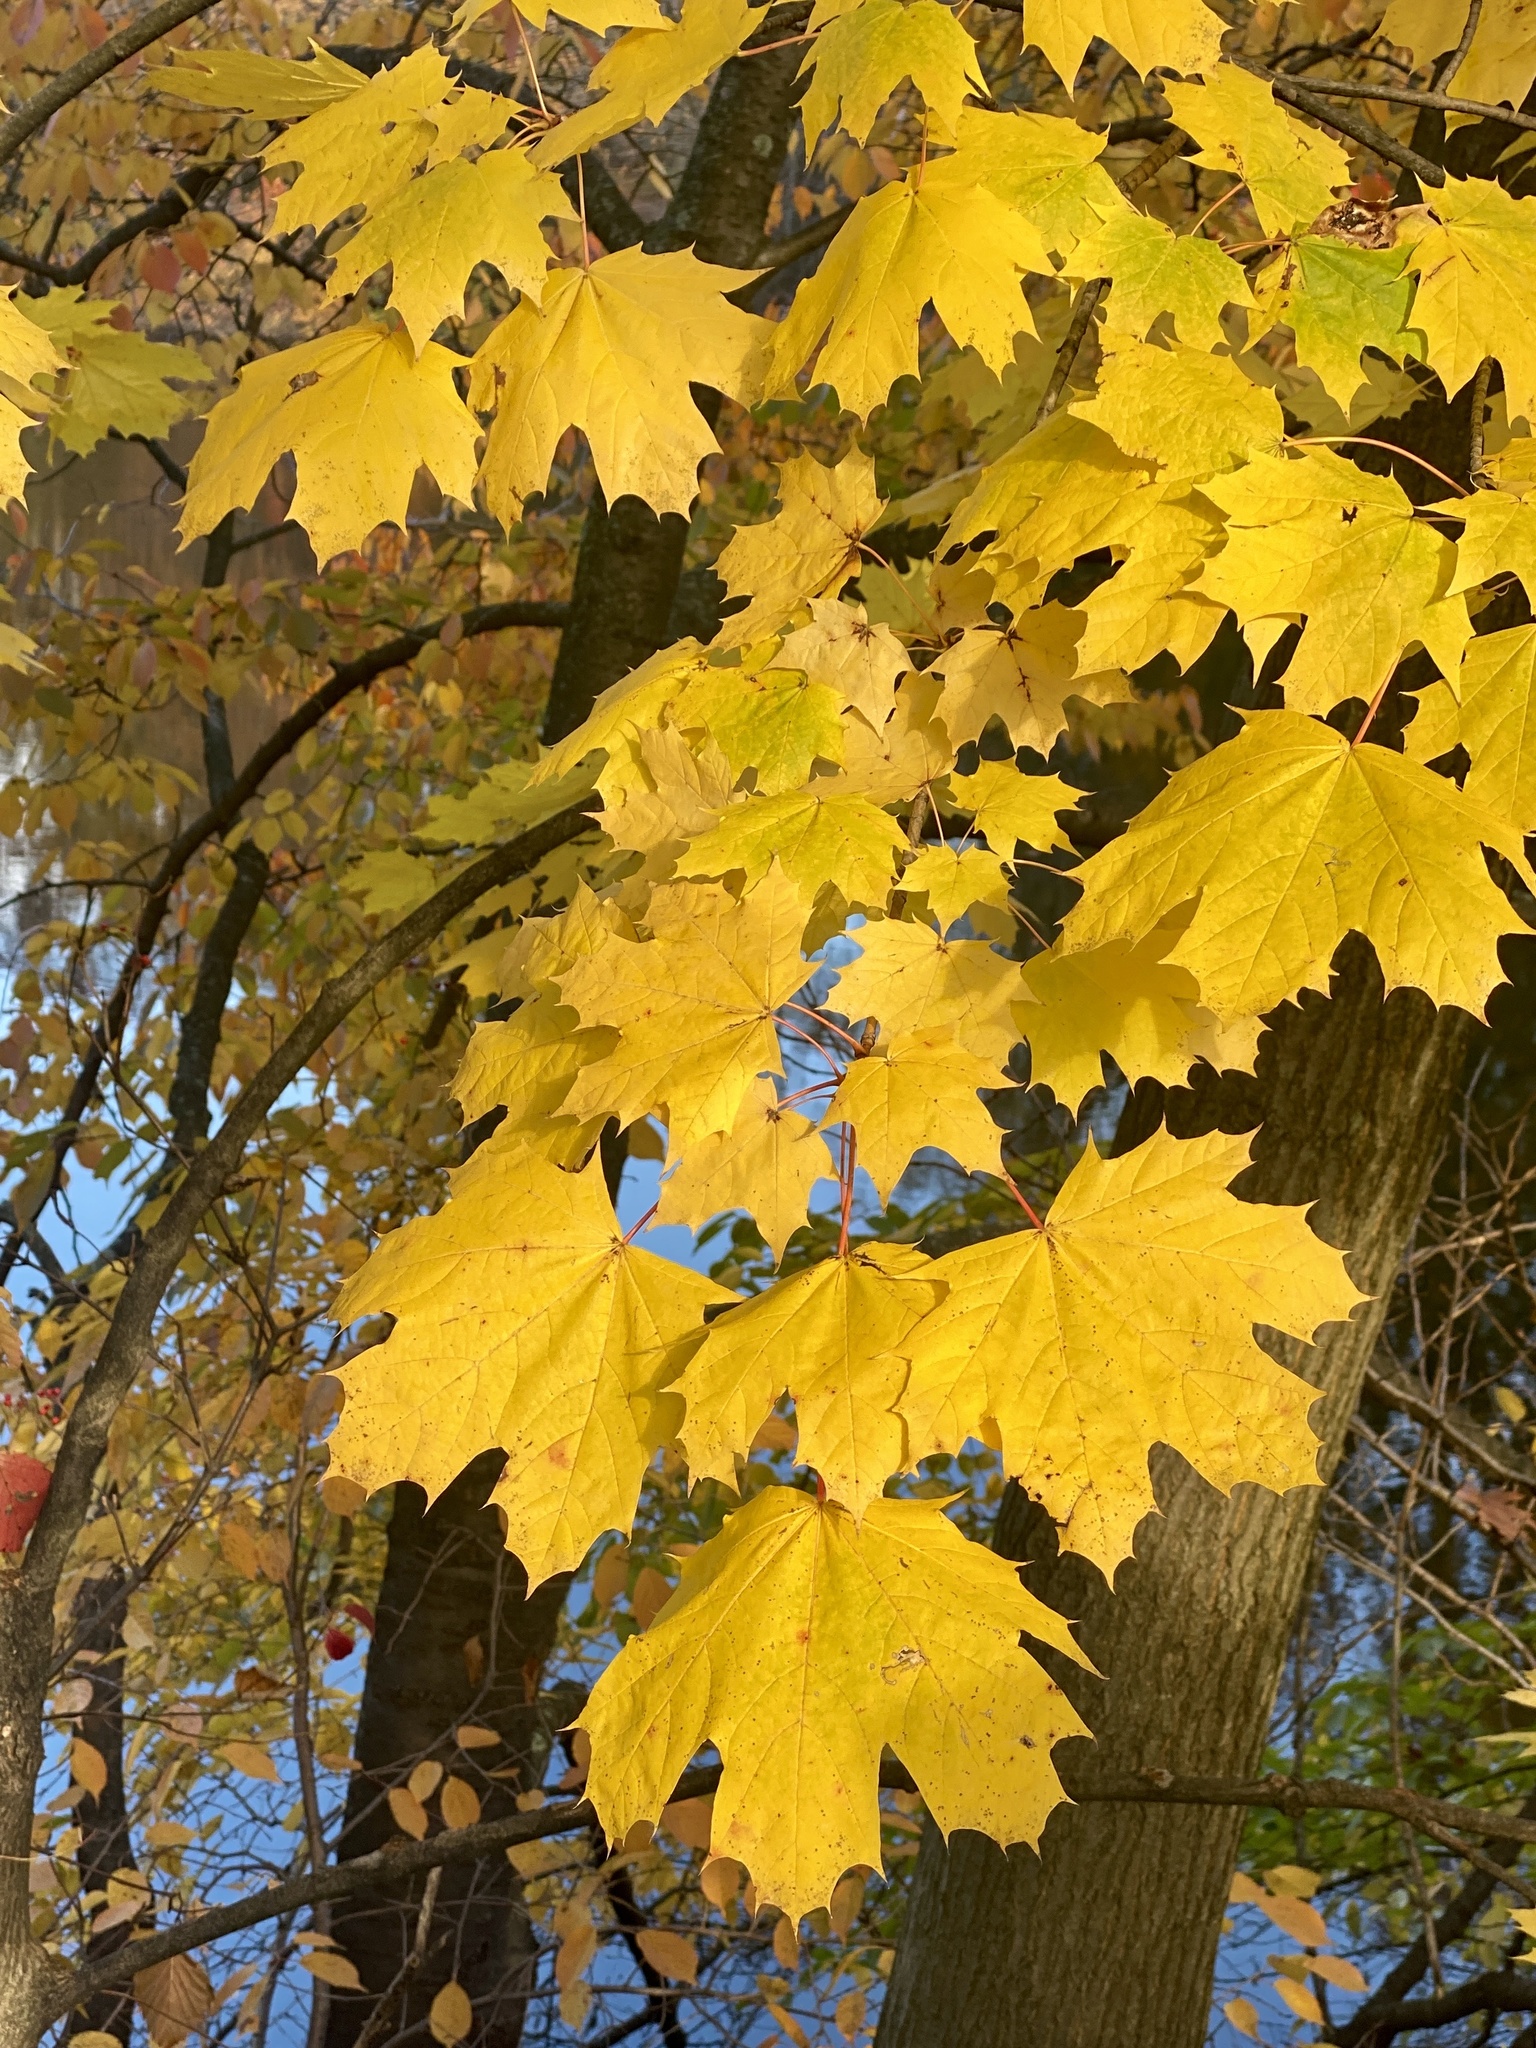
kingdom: Plantae
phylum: Tracheophyta
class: Magnoliopsida
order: Sapindales
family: Sapindaceae
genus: Acer
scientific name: Acer platanoides
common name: Norway maple
